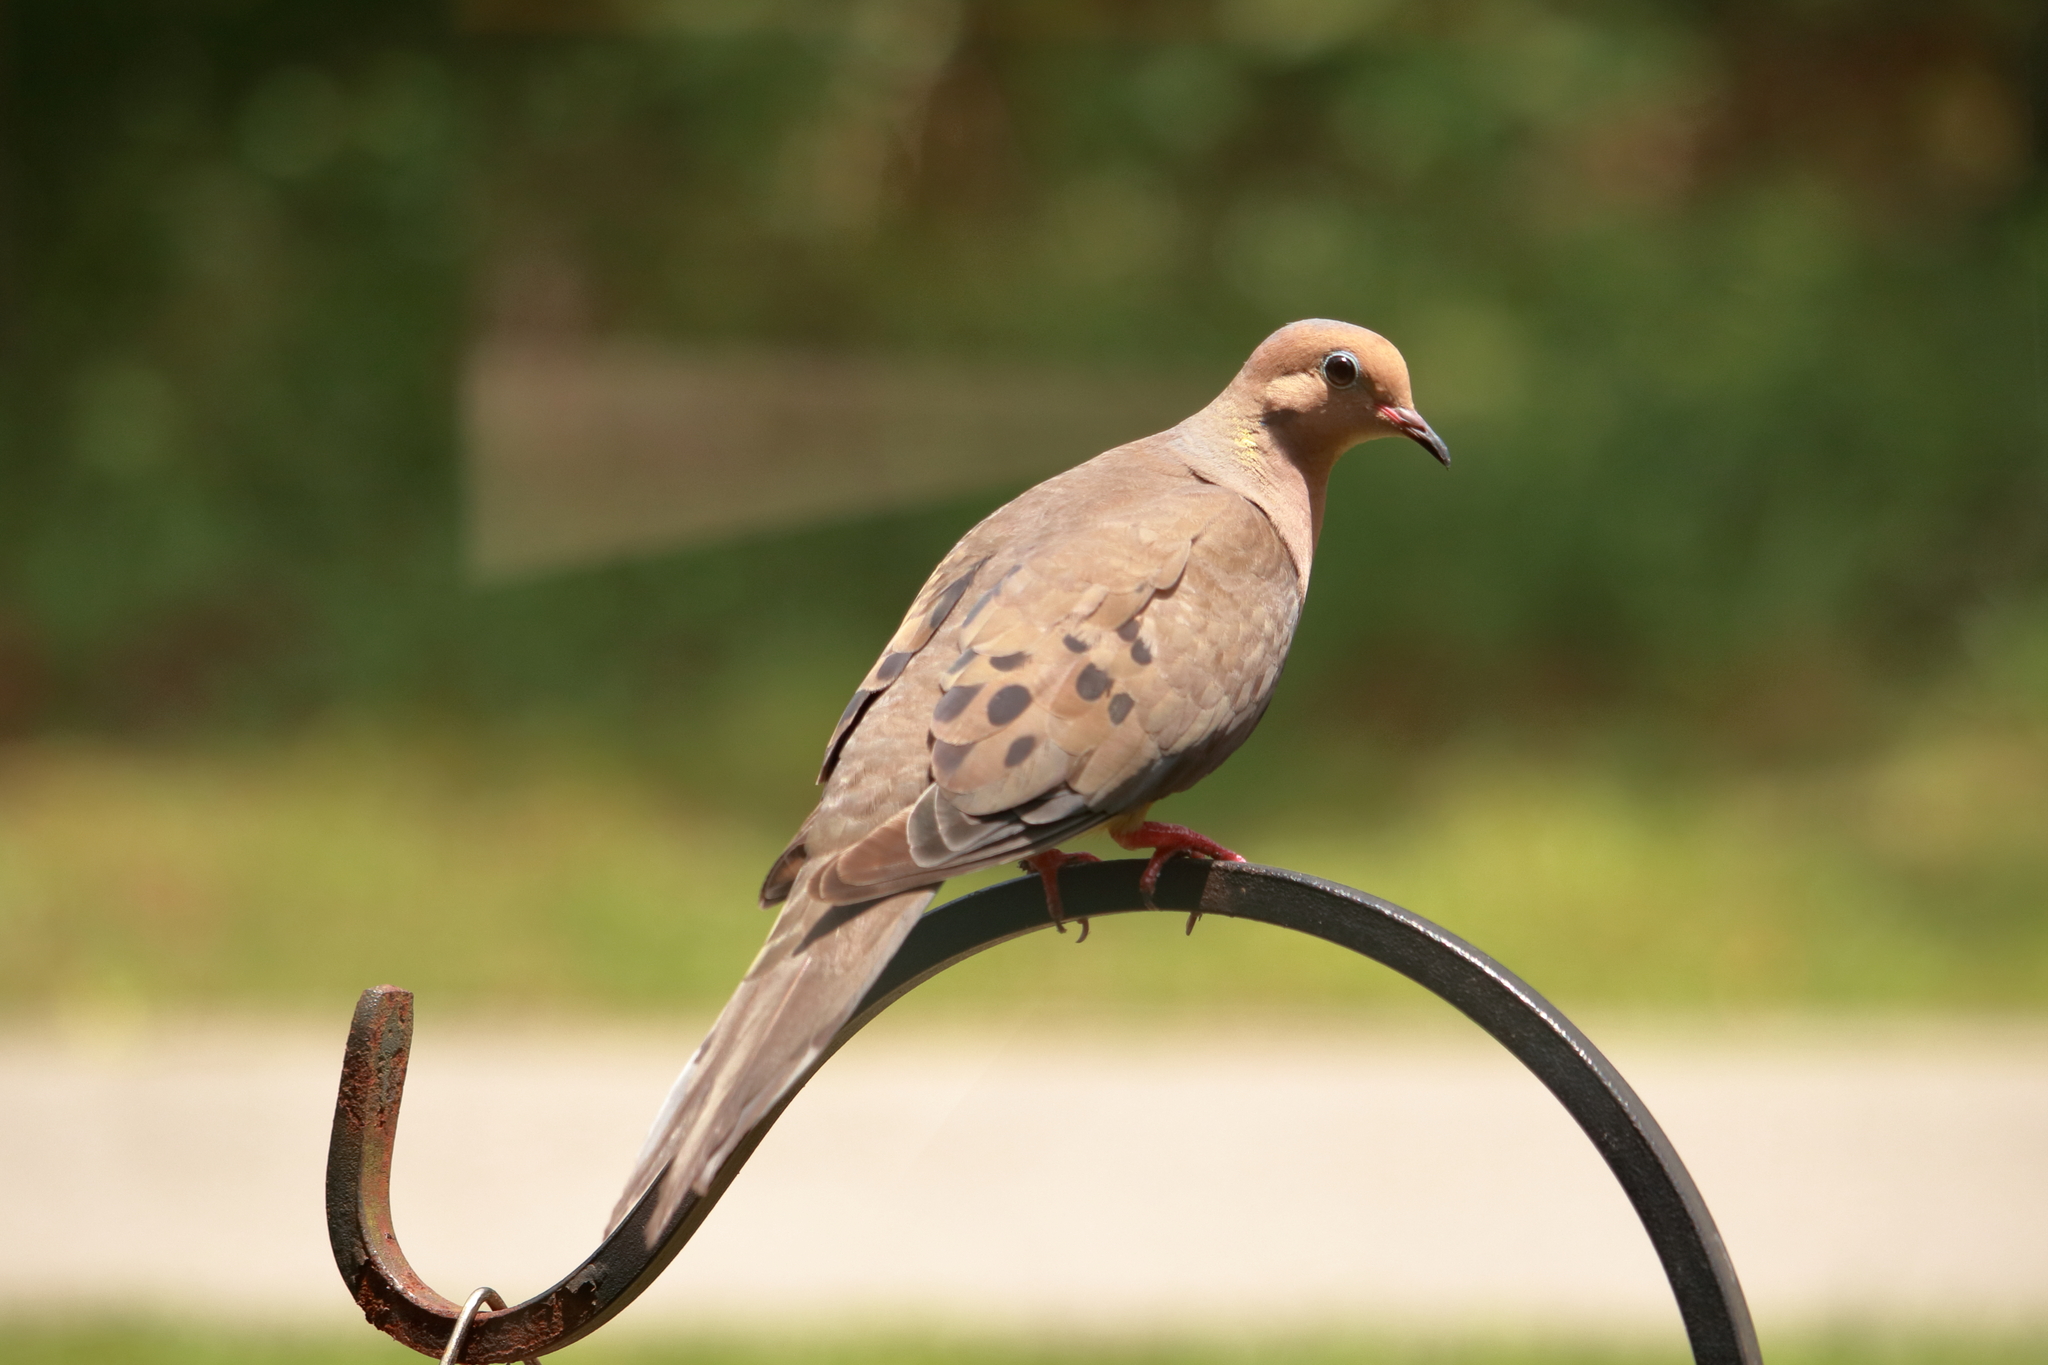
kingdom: Animalia
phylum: Chordata
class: Aves
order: Columbiformes
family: Columbidae
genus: Zenaida
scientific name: Zenaida macroura
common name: Mourning dove
